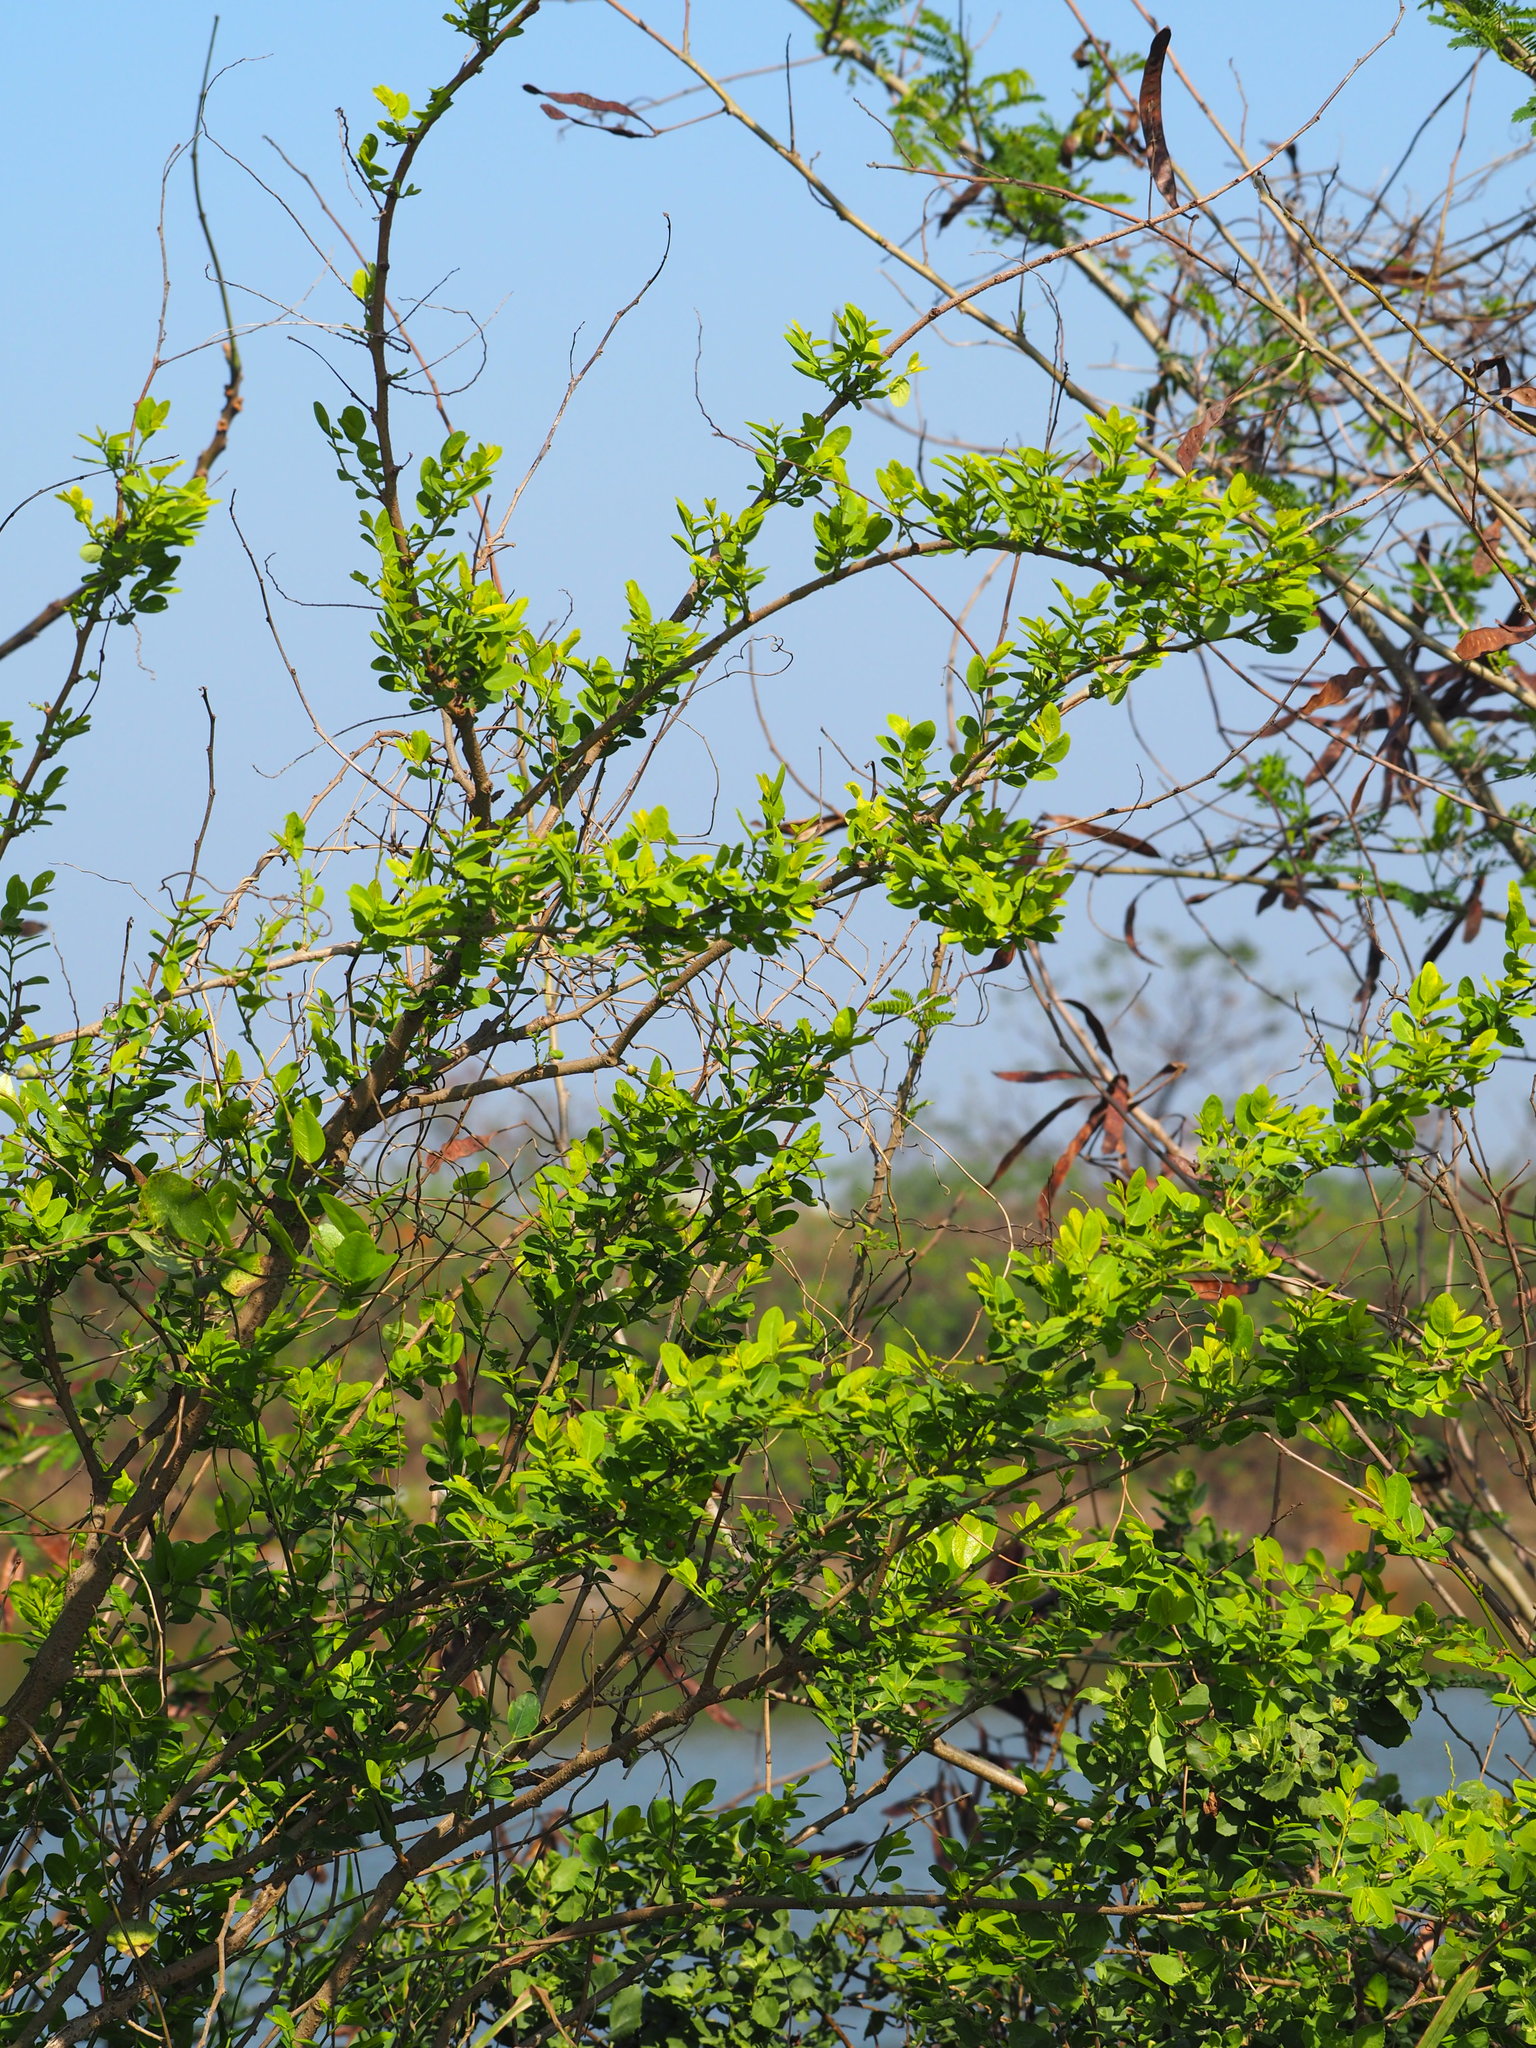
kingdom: Plantae
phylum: Tracheophyta
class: Magnoliopsida
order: Malpighiales
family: Phyllanthaceae
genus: Phyllanthus
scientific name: Phyllanthus reticulatus
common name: Potato bush
